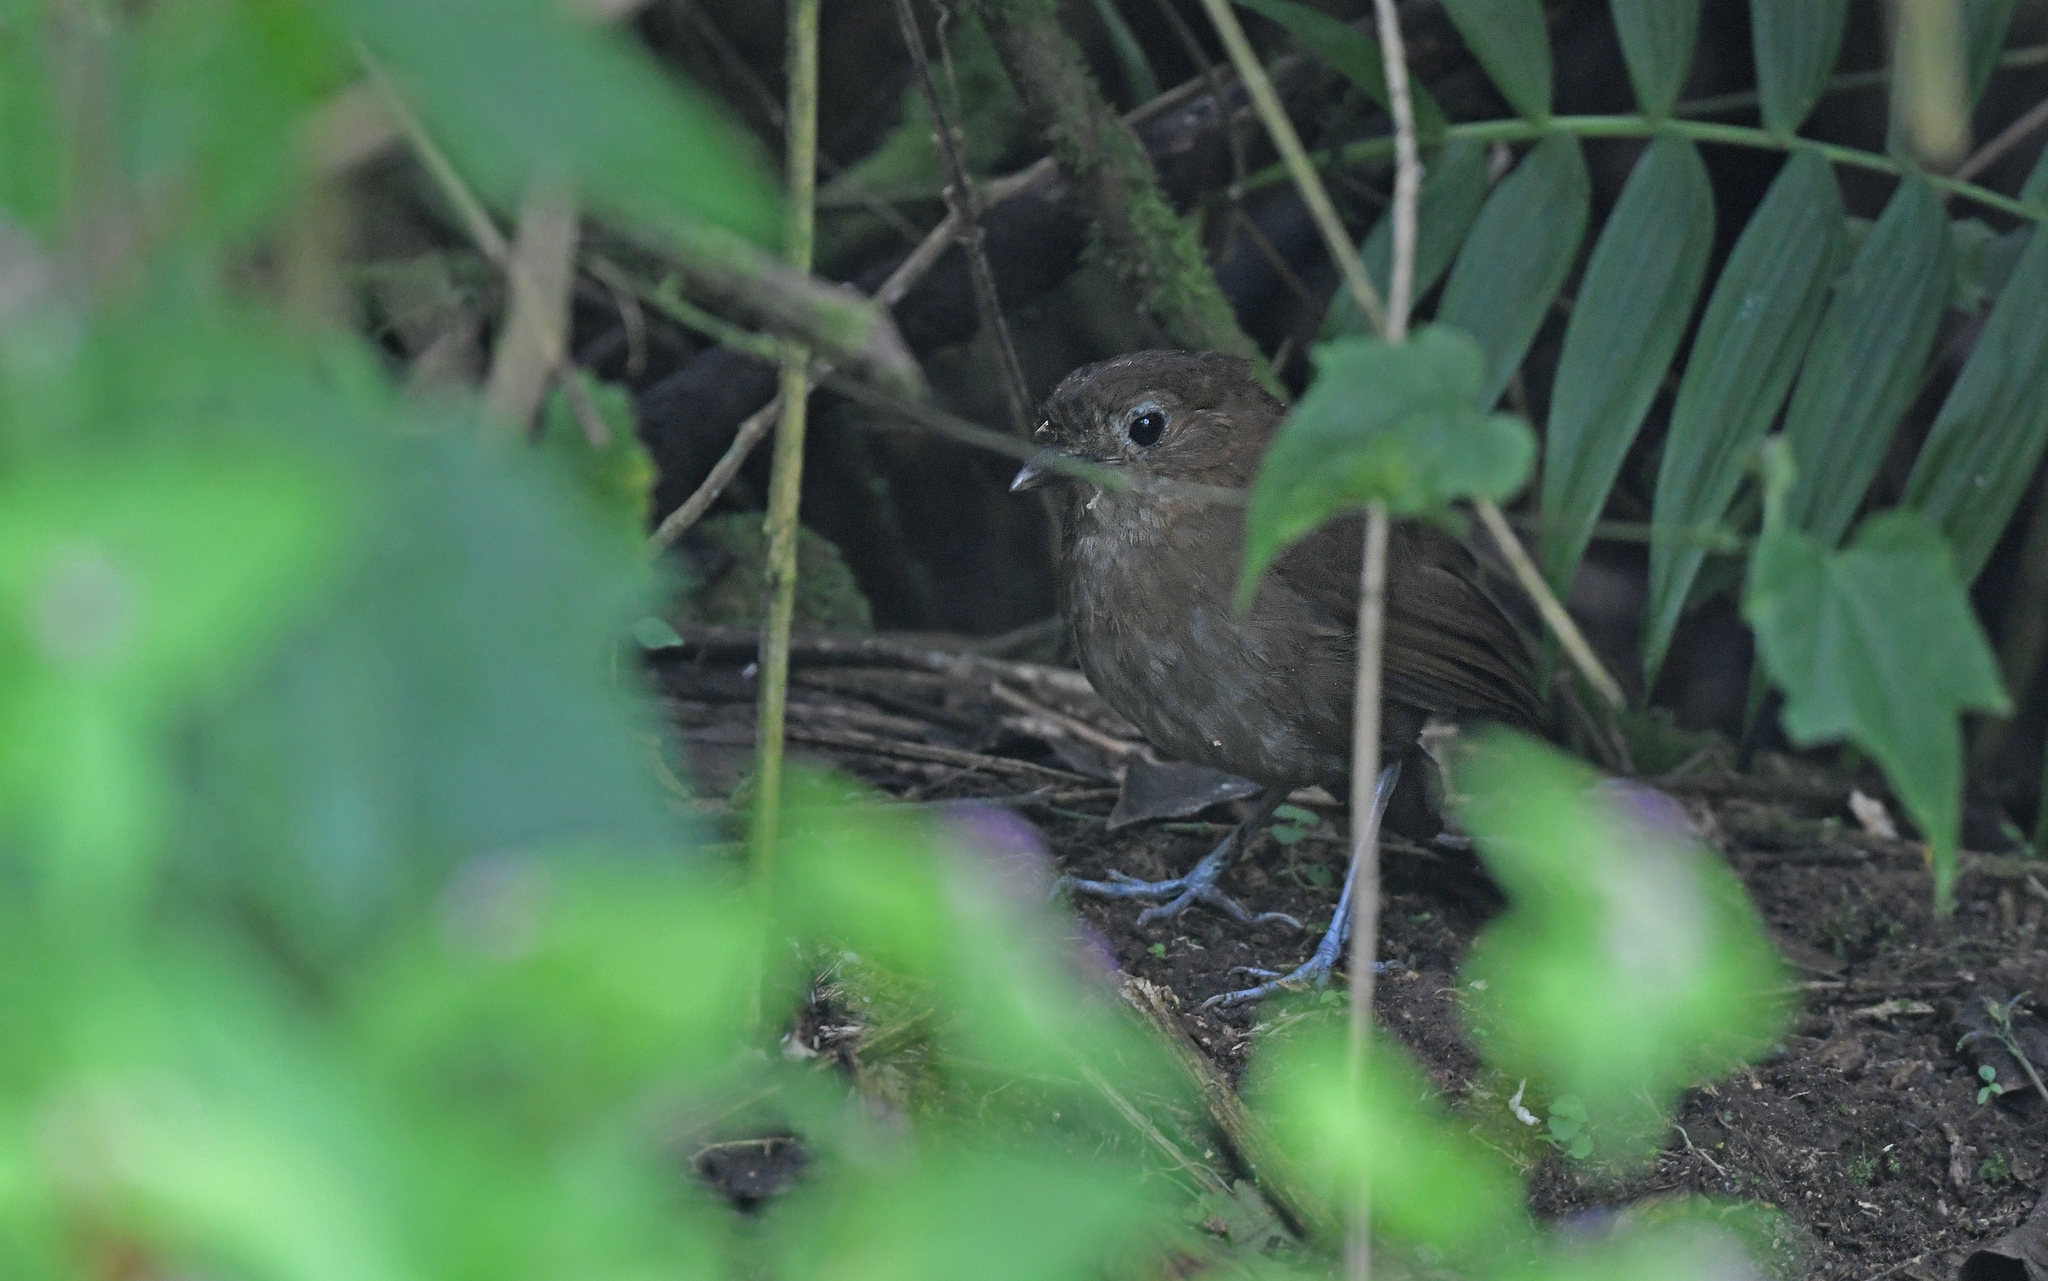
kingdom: Animalia
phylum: Chordata
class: Aves
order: Passeriformes
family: Grallariidae
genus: Grallaria
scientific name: Grallaria milleri
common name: Brown-banded antpitta
